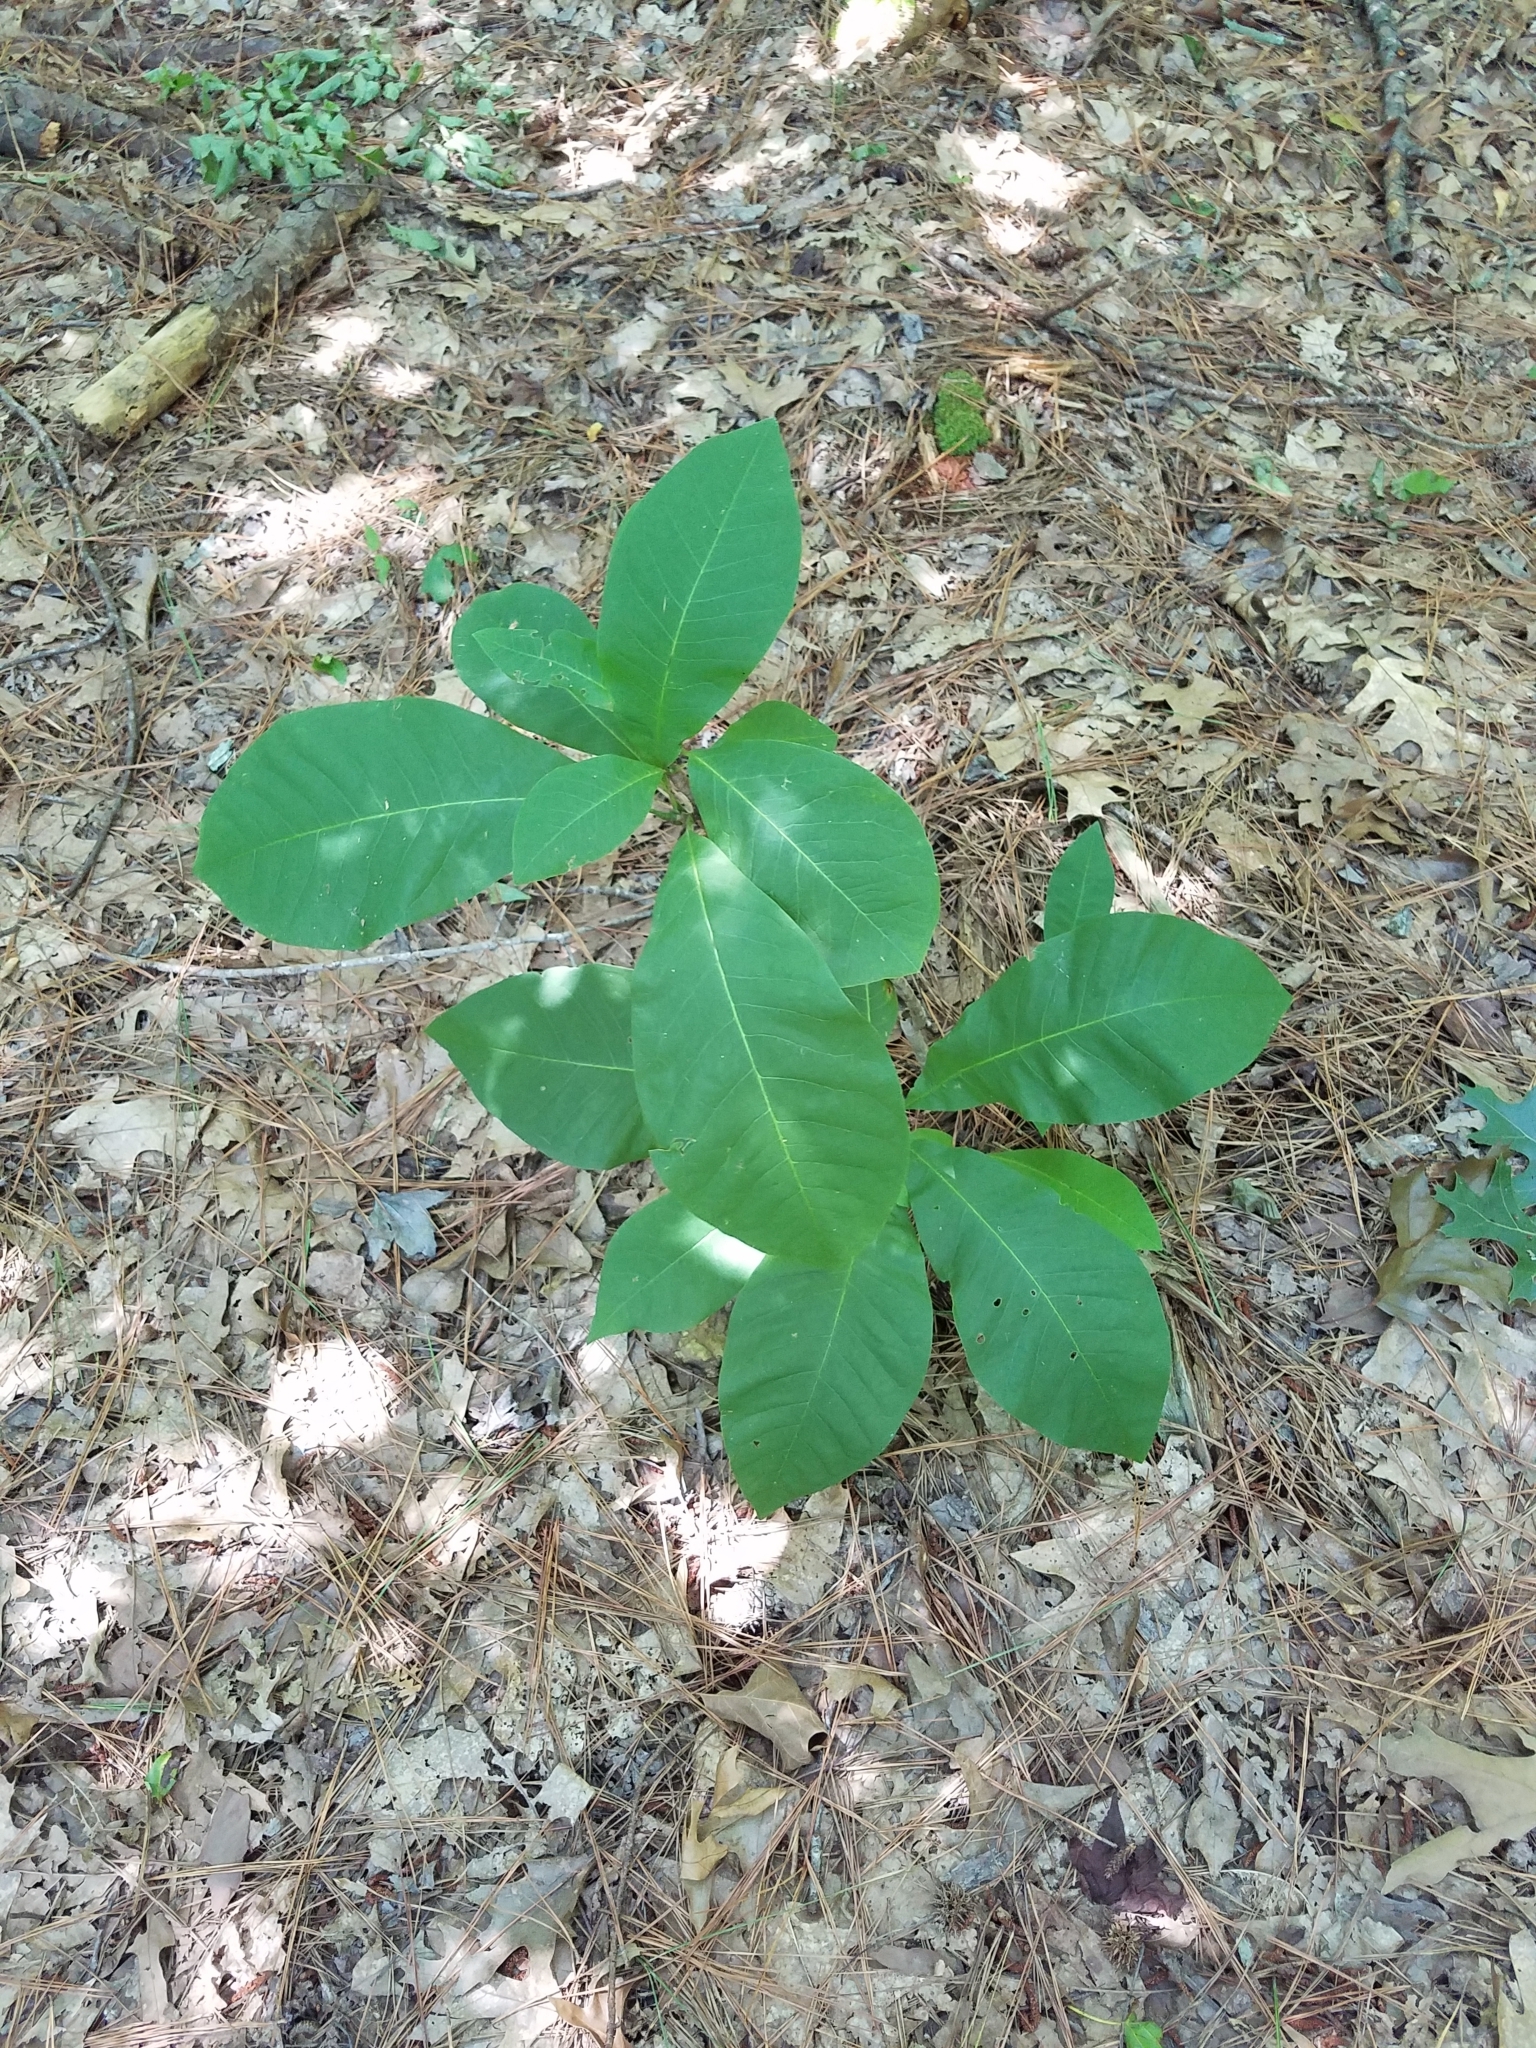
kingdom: Plantae
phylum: Tracheophyta
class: Magnoliopsida
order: Magnoliales
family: Magnoliaceae
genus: Magnolia
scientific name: Magnolia tripetala
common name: Umbrella magnolia
